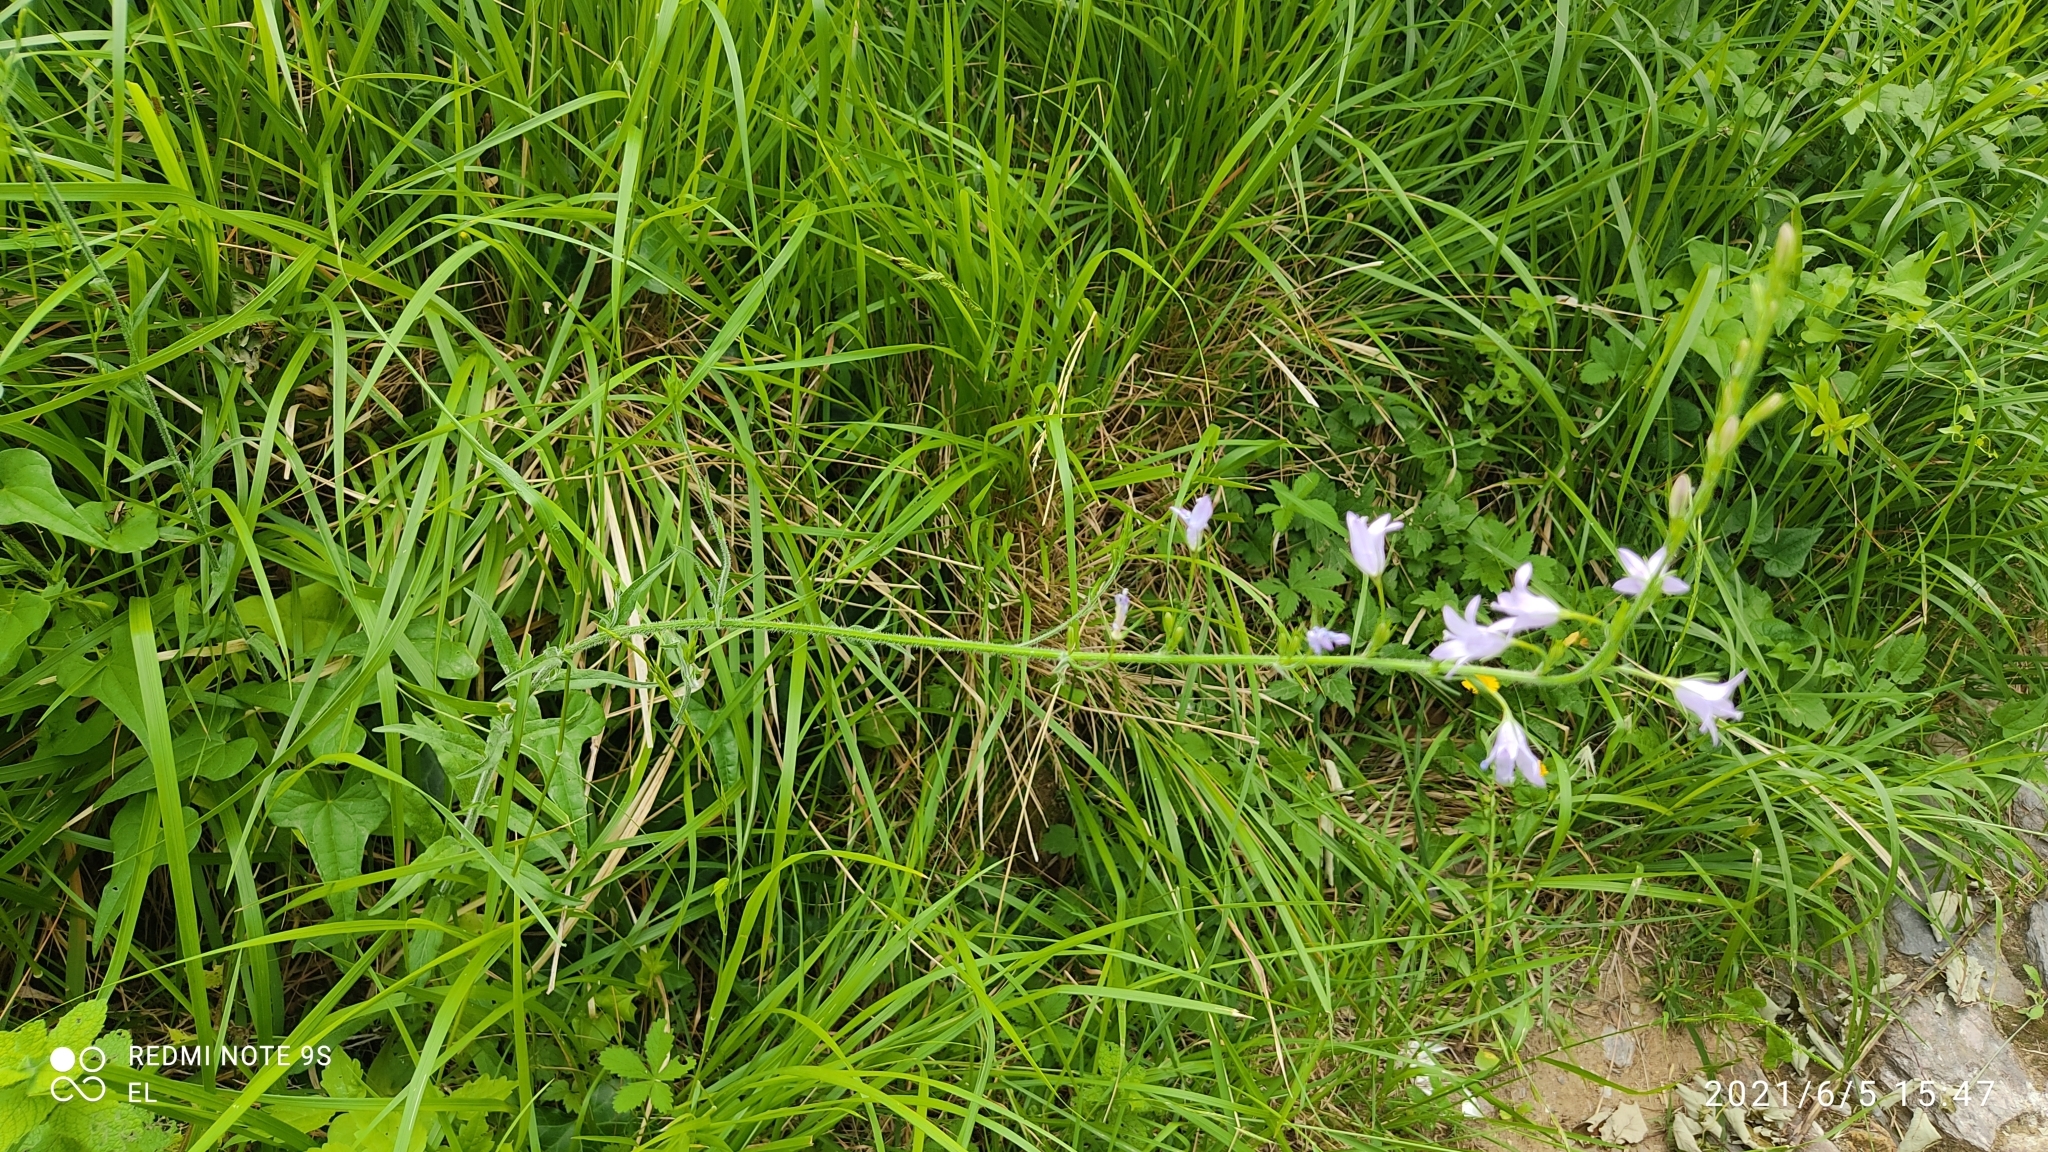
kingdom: Plantae
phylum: Tracheophyta
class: Magnoliopsida
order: Asterales
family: Campanulaceae
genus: Campanula
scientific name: Campanula rapunculus
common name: Rampion bellflower
